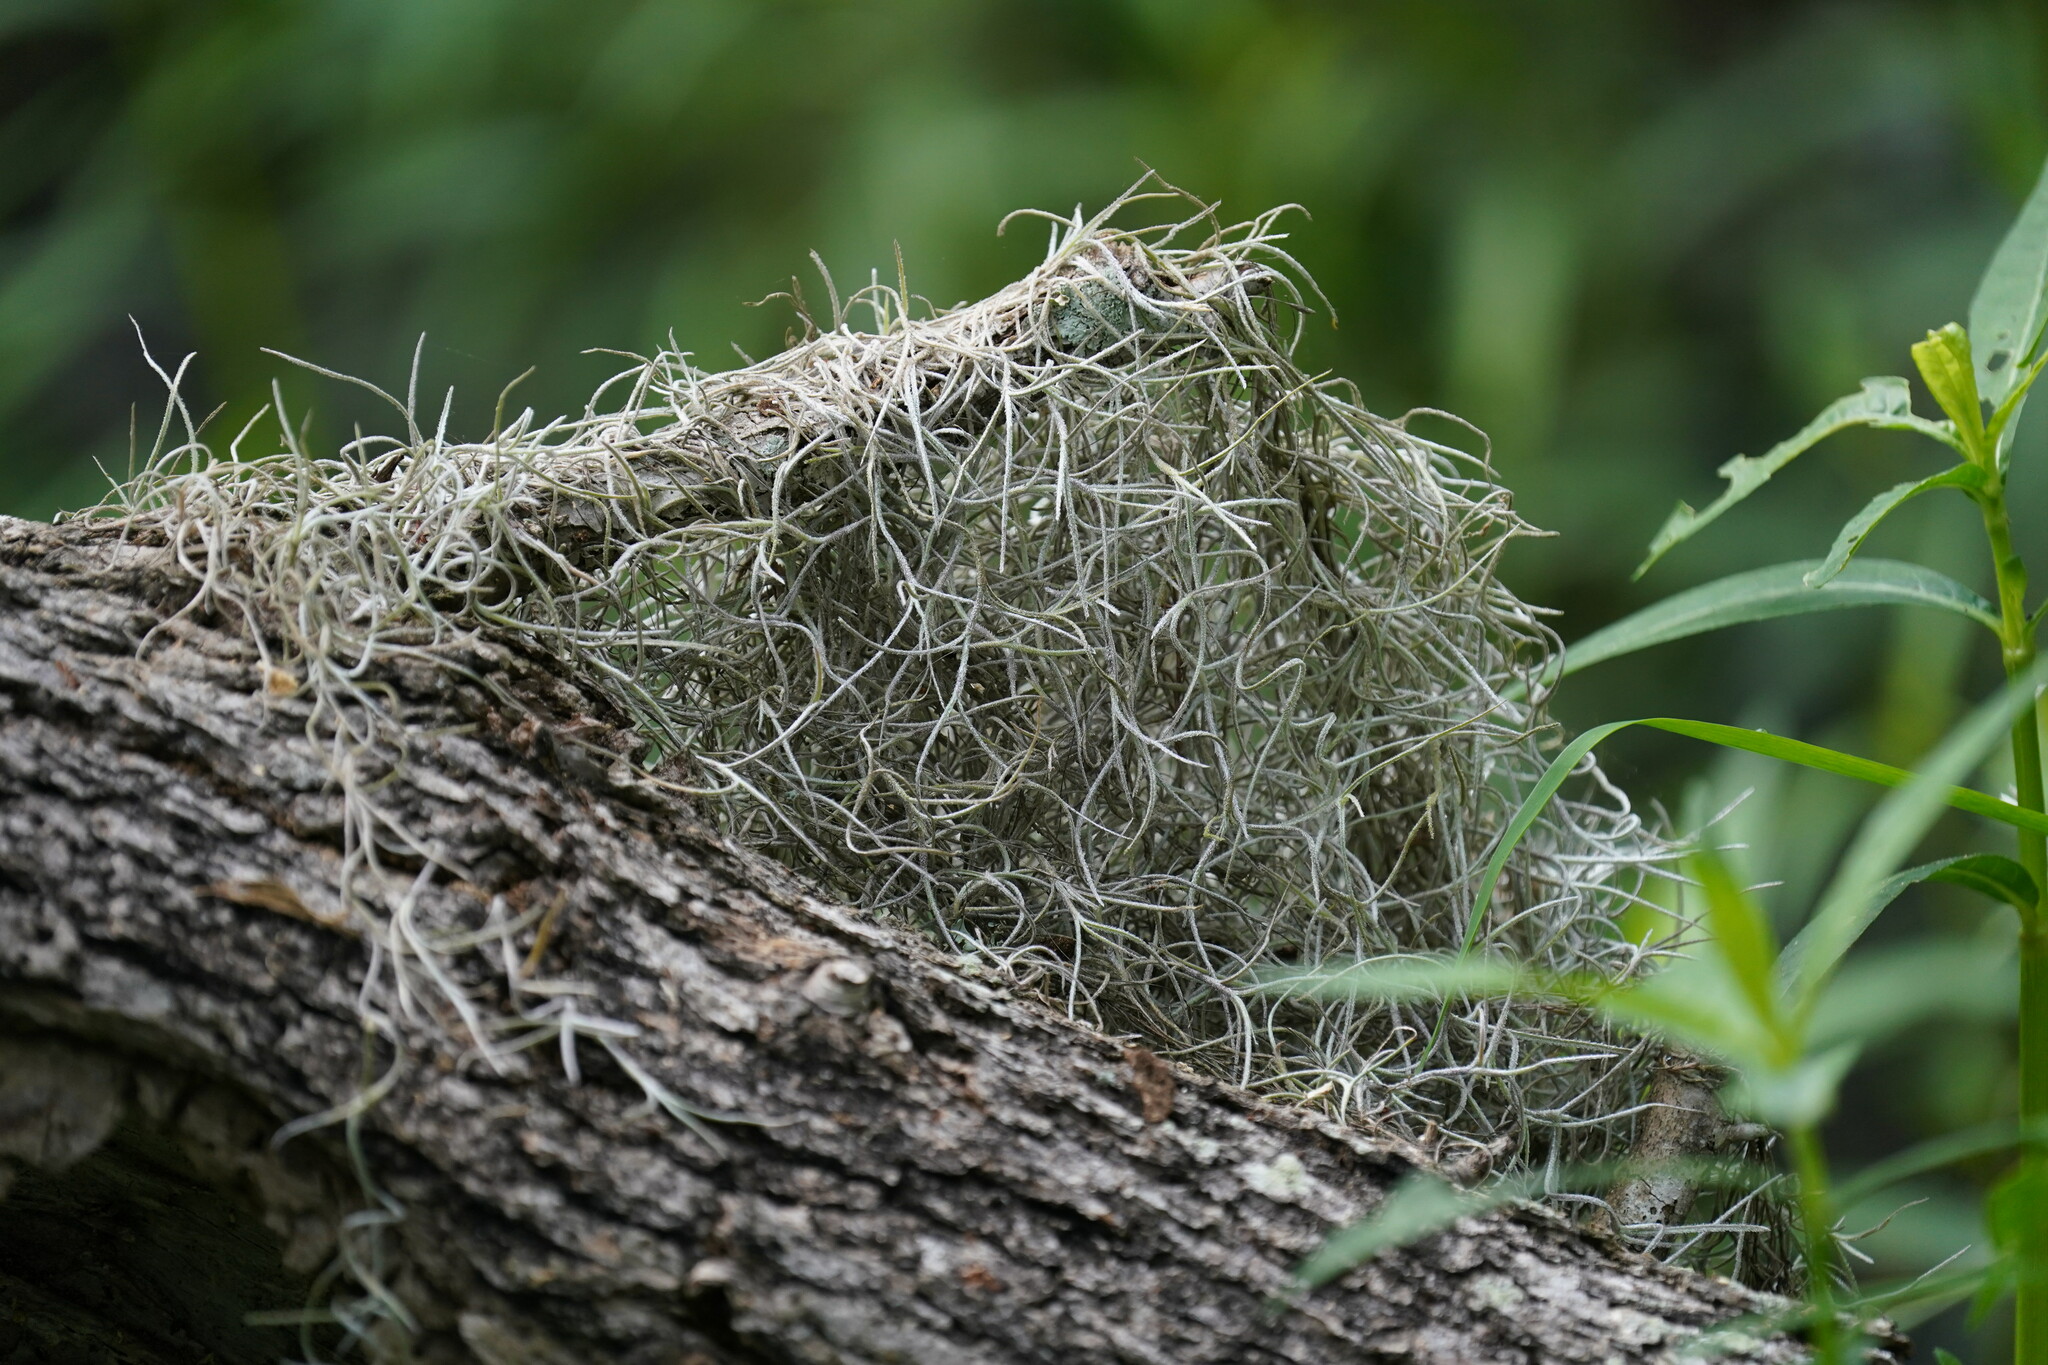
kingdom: Plantae
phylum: Tracheophyta
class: Liliopsida
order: Poales
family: Bromeliaceae
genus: Tillandsia
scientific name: Tillandsia usneoides
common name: Spanish moss
